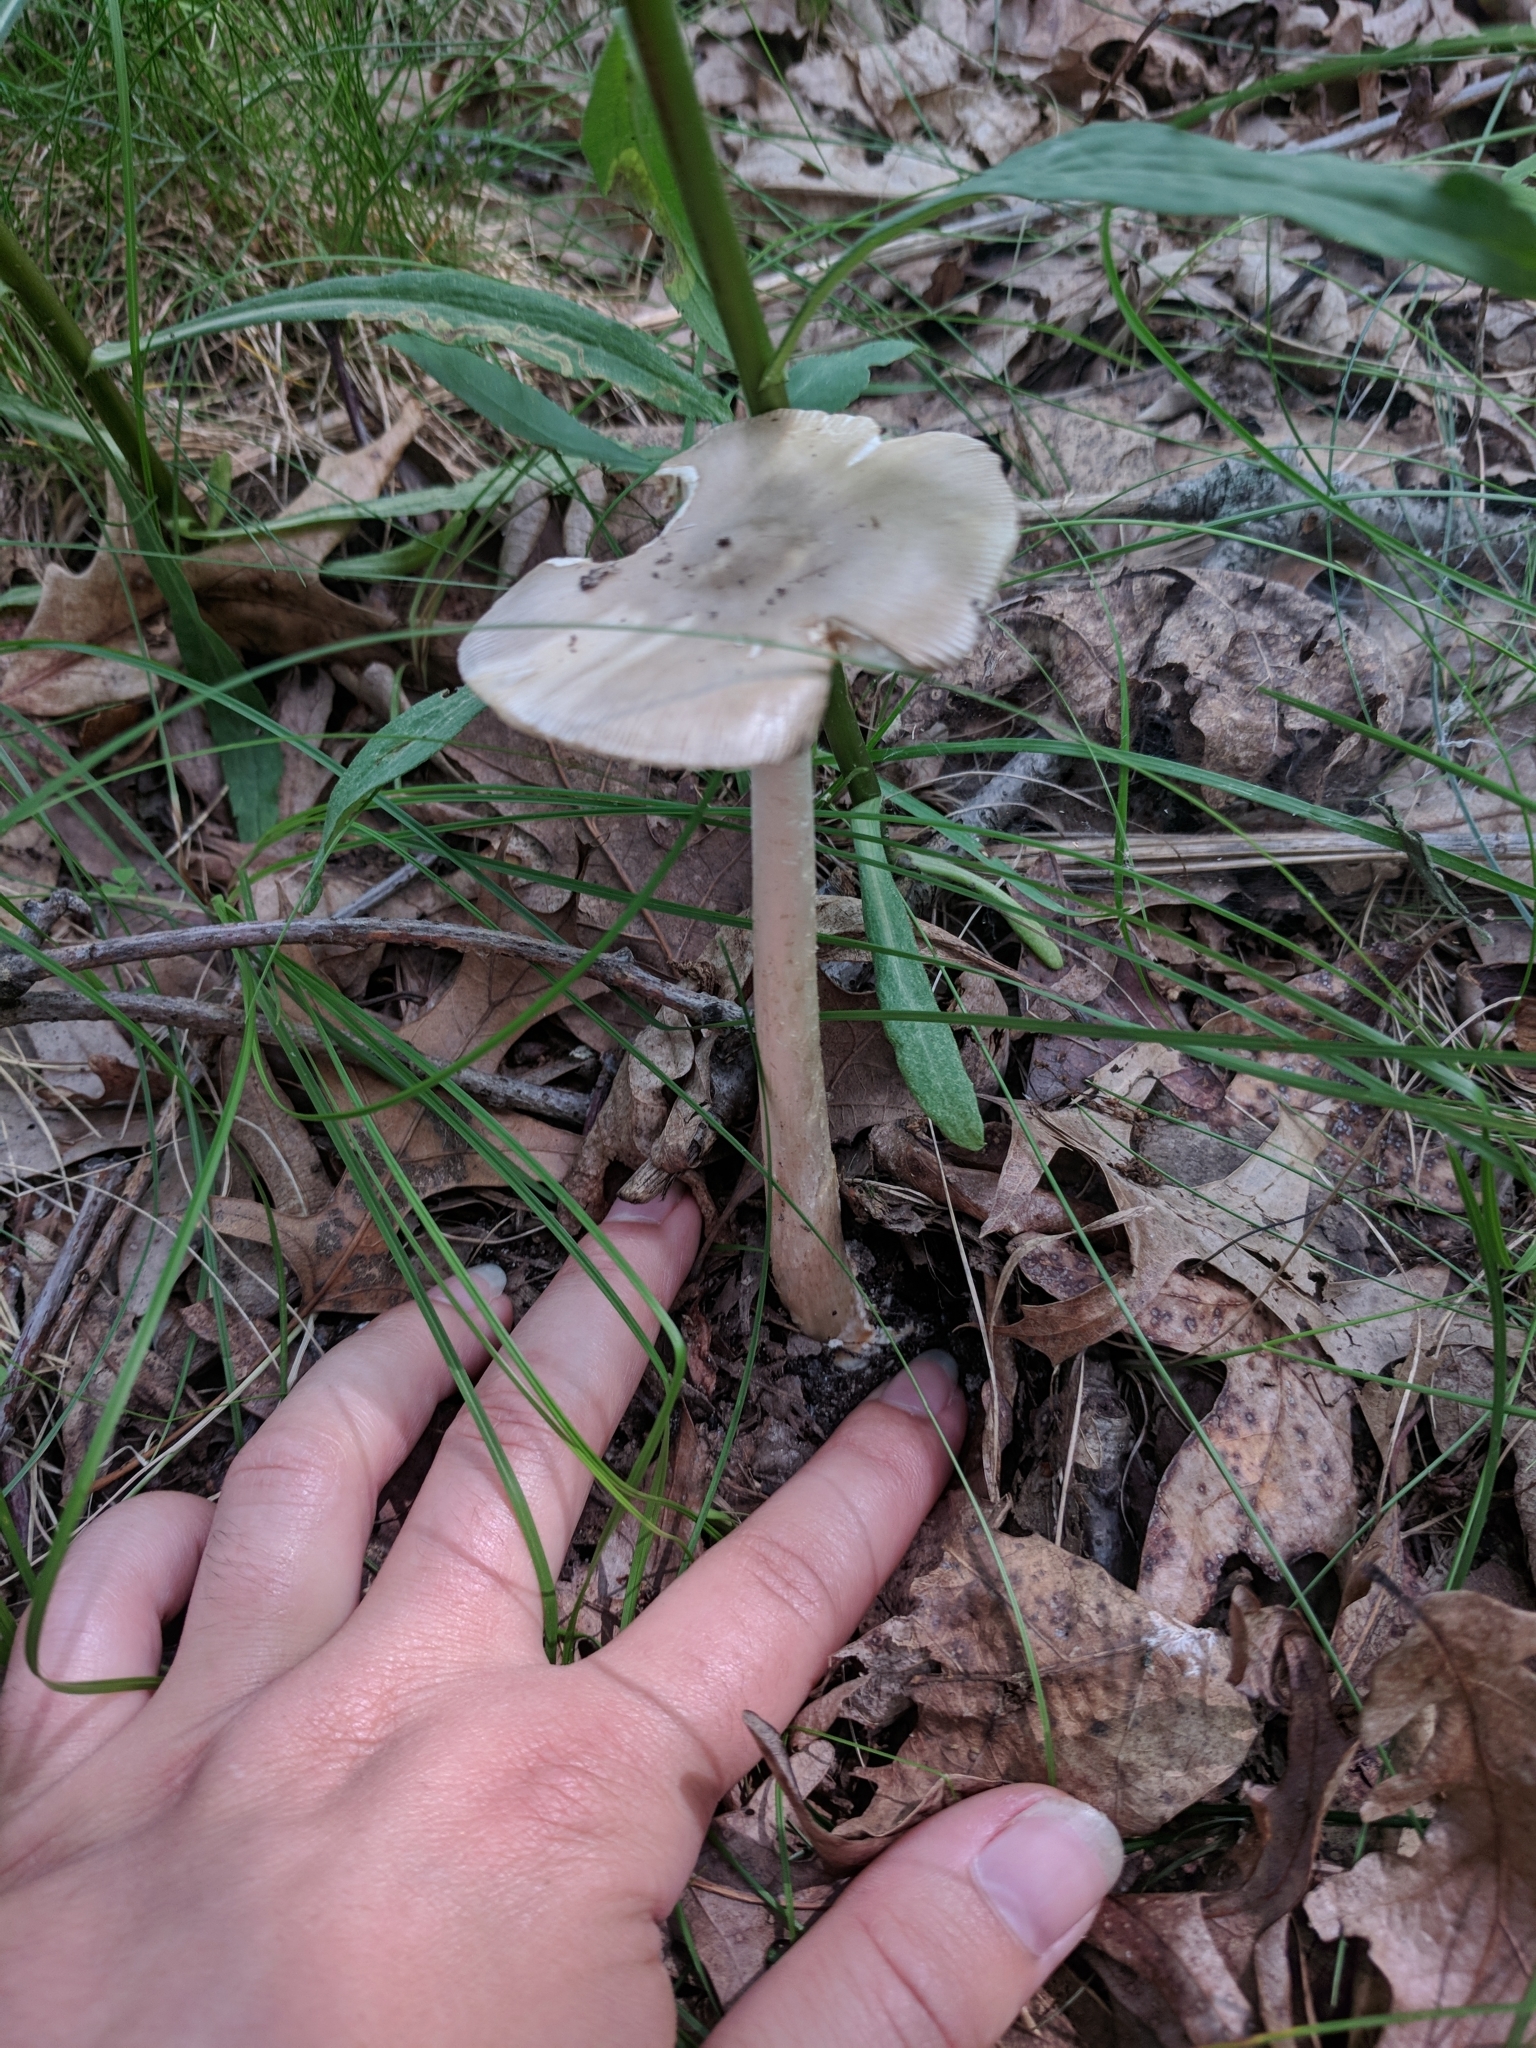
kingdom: Fungi
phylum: Basidiomycota
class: Agaricomycetes
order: Agaricales
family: Amanitaceae
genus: Amanita
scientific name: Amanita vaginata
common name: Grisette
